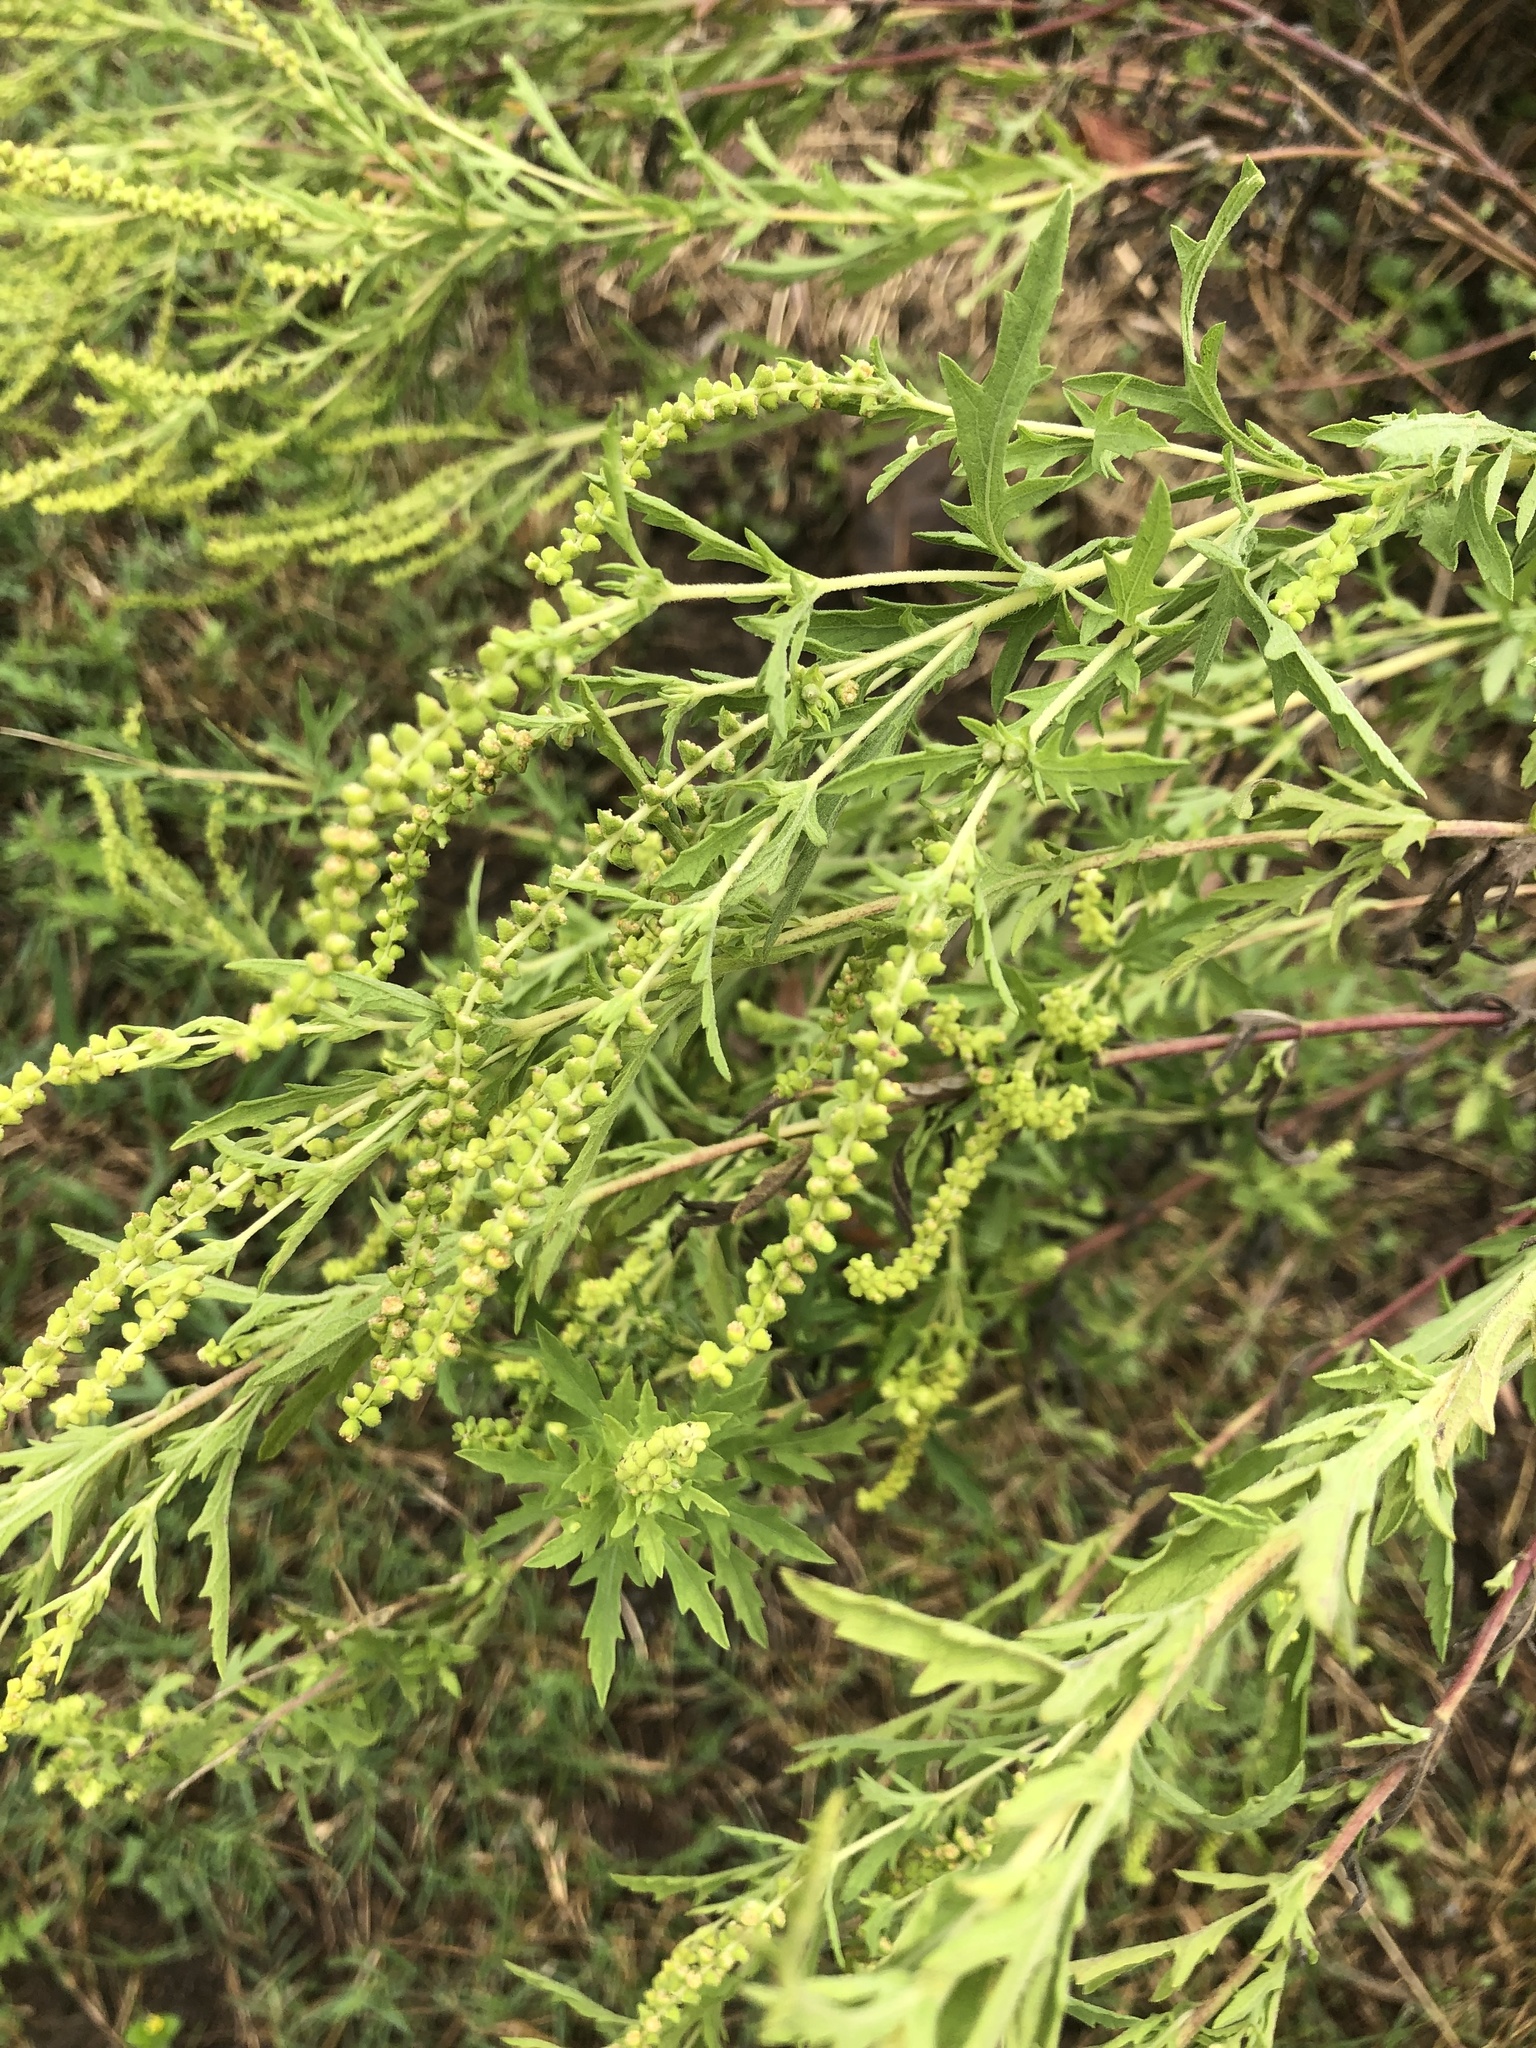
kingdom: Plantae
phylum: Tracheophyta
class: Magnoliopsida
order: Asterales
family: Asteraceae
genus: Ambrosia
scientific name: Ambrosia psilostachya
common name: Perennial ragweed
